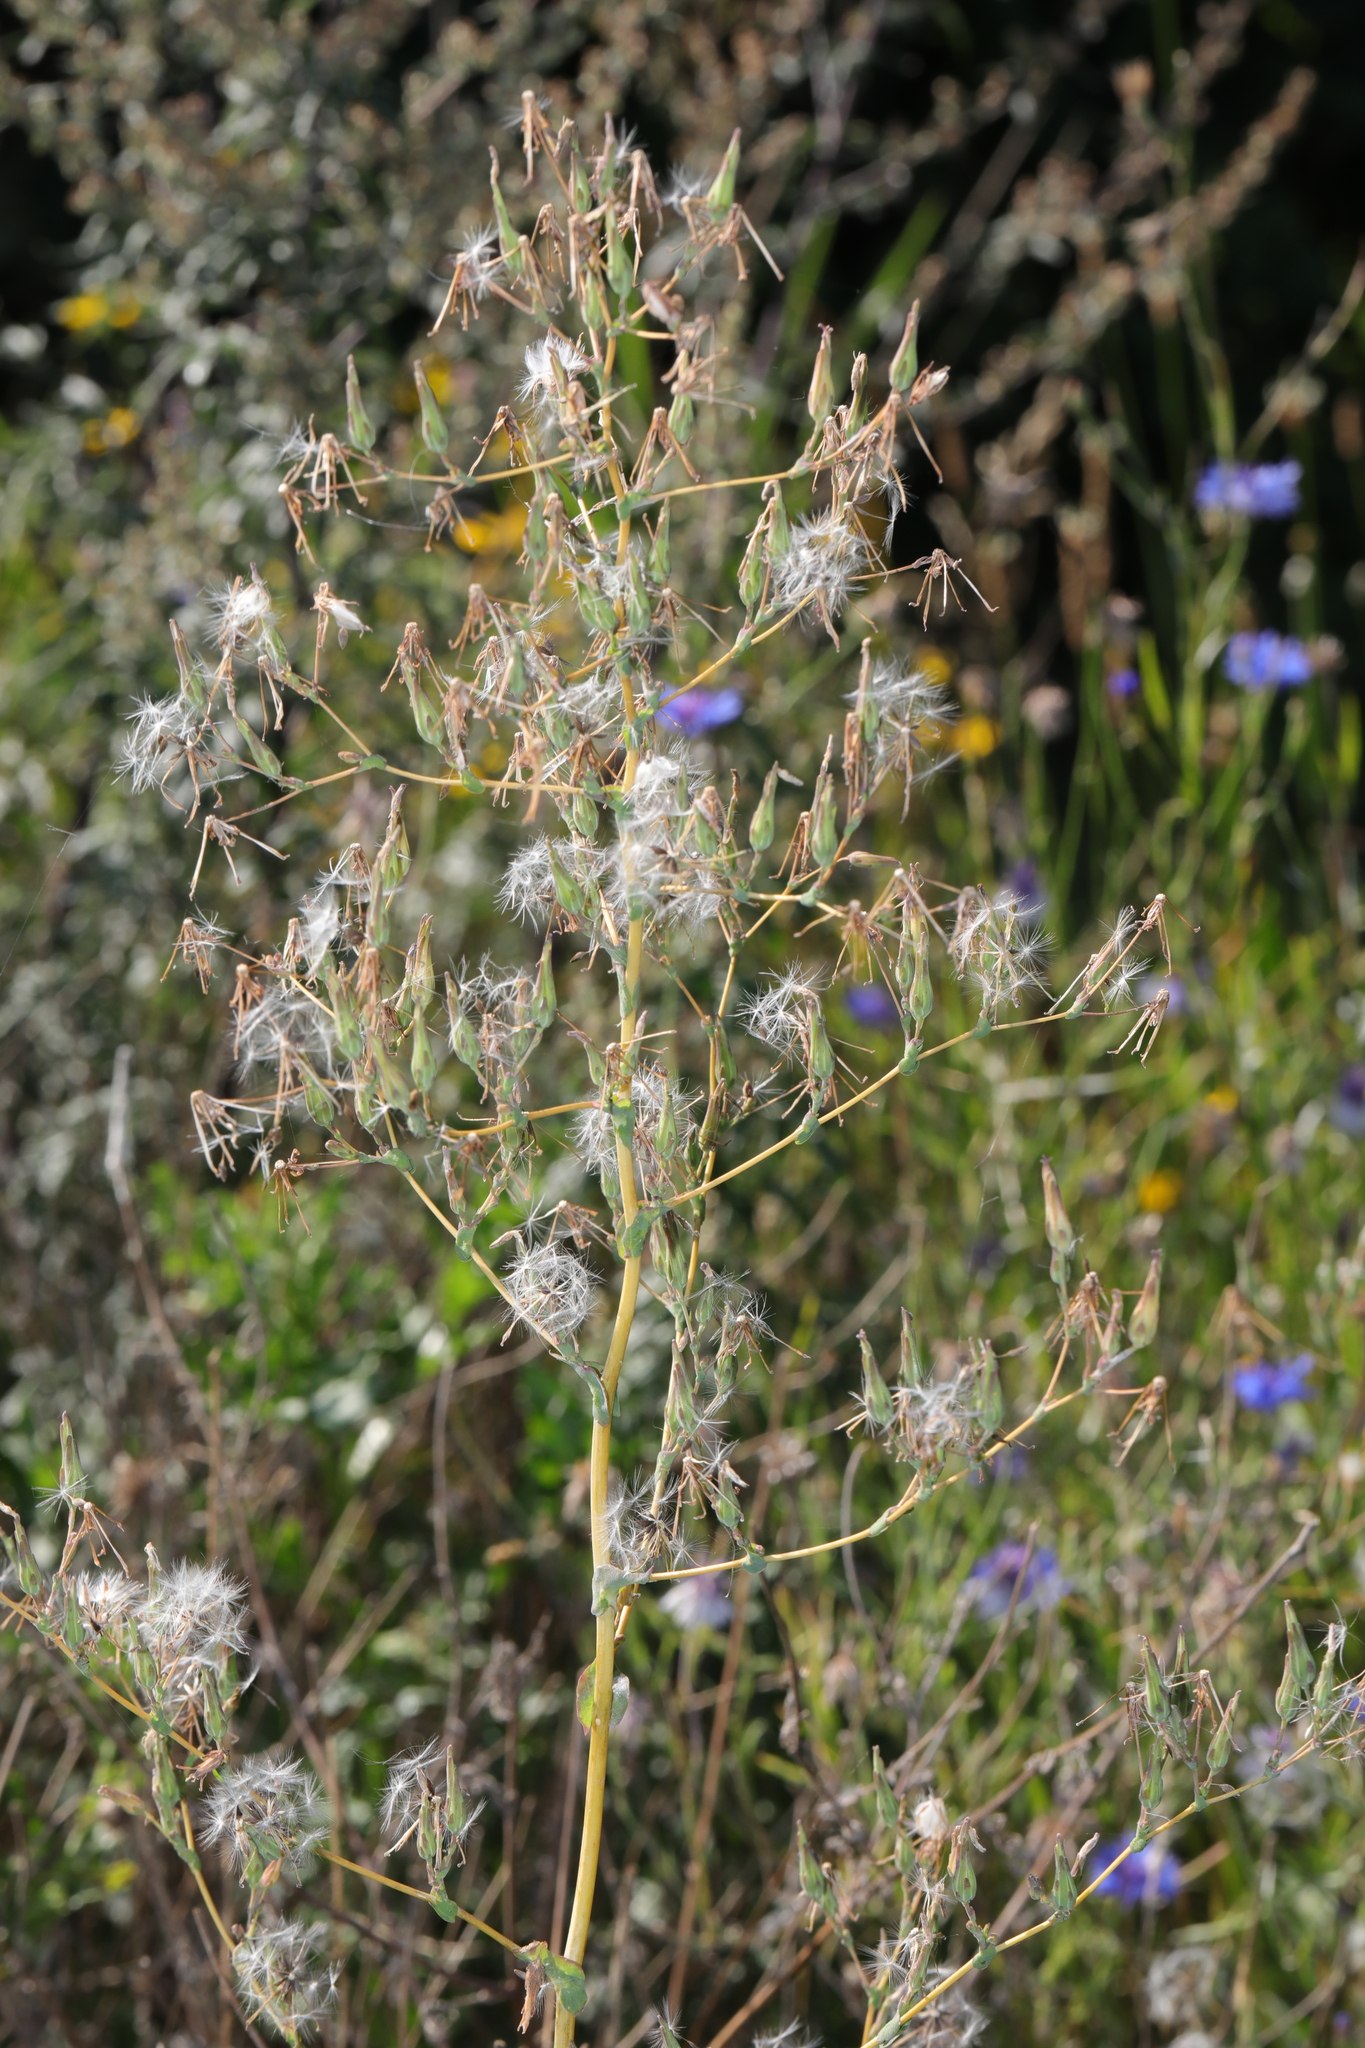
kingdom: Plantae
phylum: Tracheophyta
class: Magnoliopsida
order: Asterales
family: Asteraceae
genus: Lactuca
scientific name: Lactuca serriola
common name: Prickly lettuce
